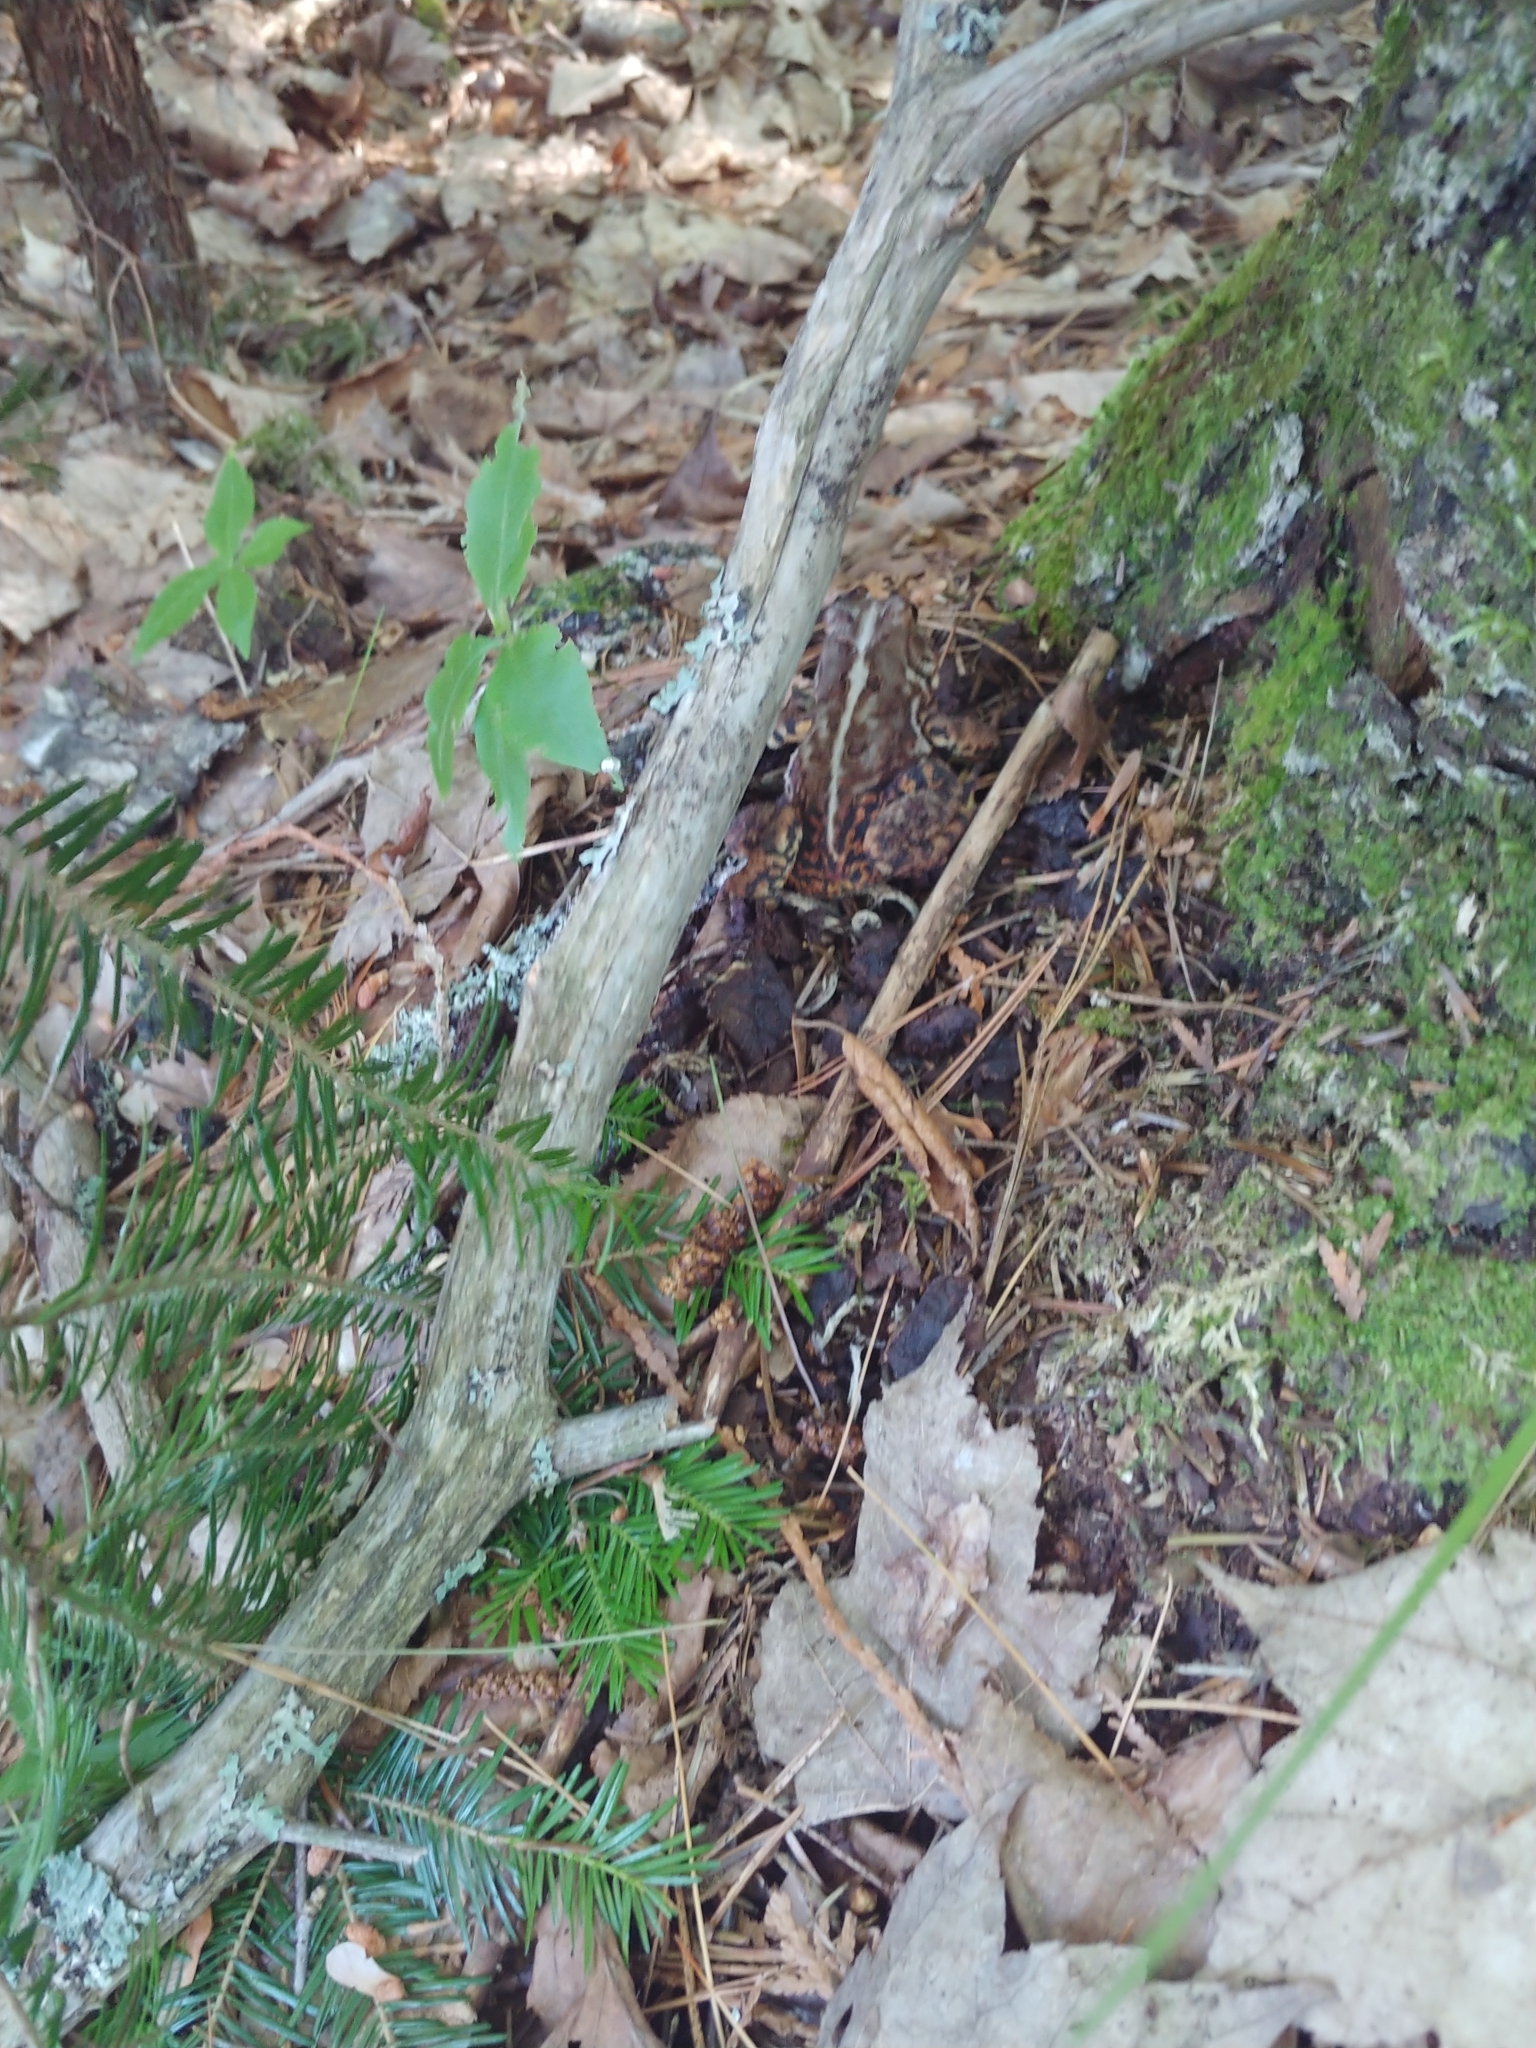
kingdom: Animalia
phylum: Chordata
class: Amphibia
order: Anura
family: Bufonidae
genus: Anaxyrus
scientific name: Anaxyrus americanus
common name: American toad
